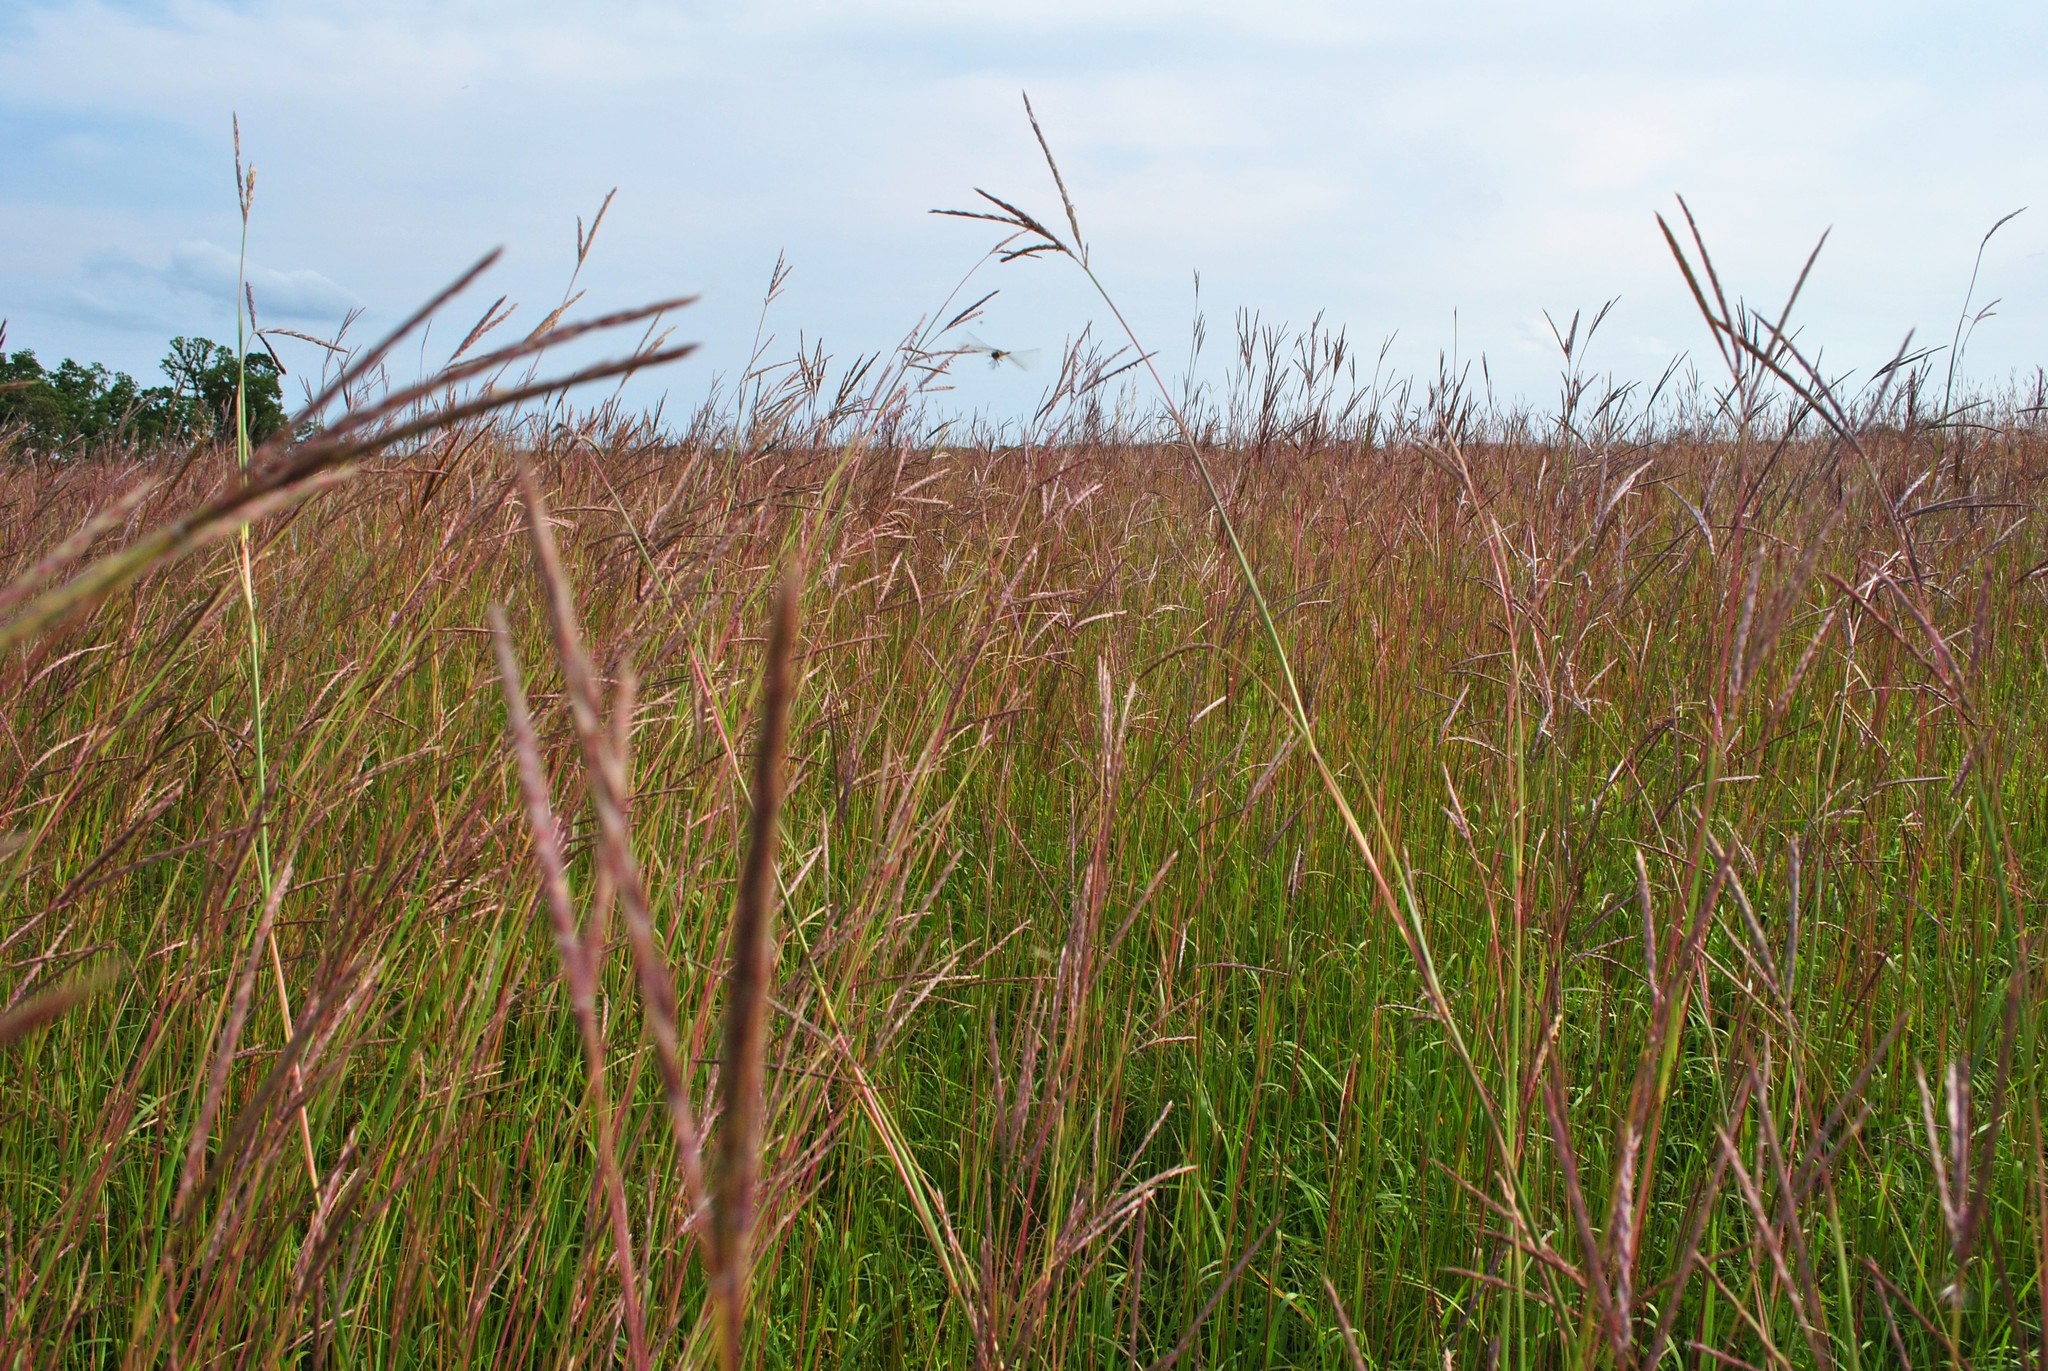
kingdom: Plantae
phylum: Tracheophyta
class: Liliopsida
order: Poales
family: Poaceae
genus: Andropogon
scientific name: Andropogon gerardi
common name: Big bluestem
